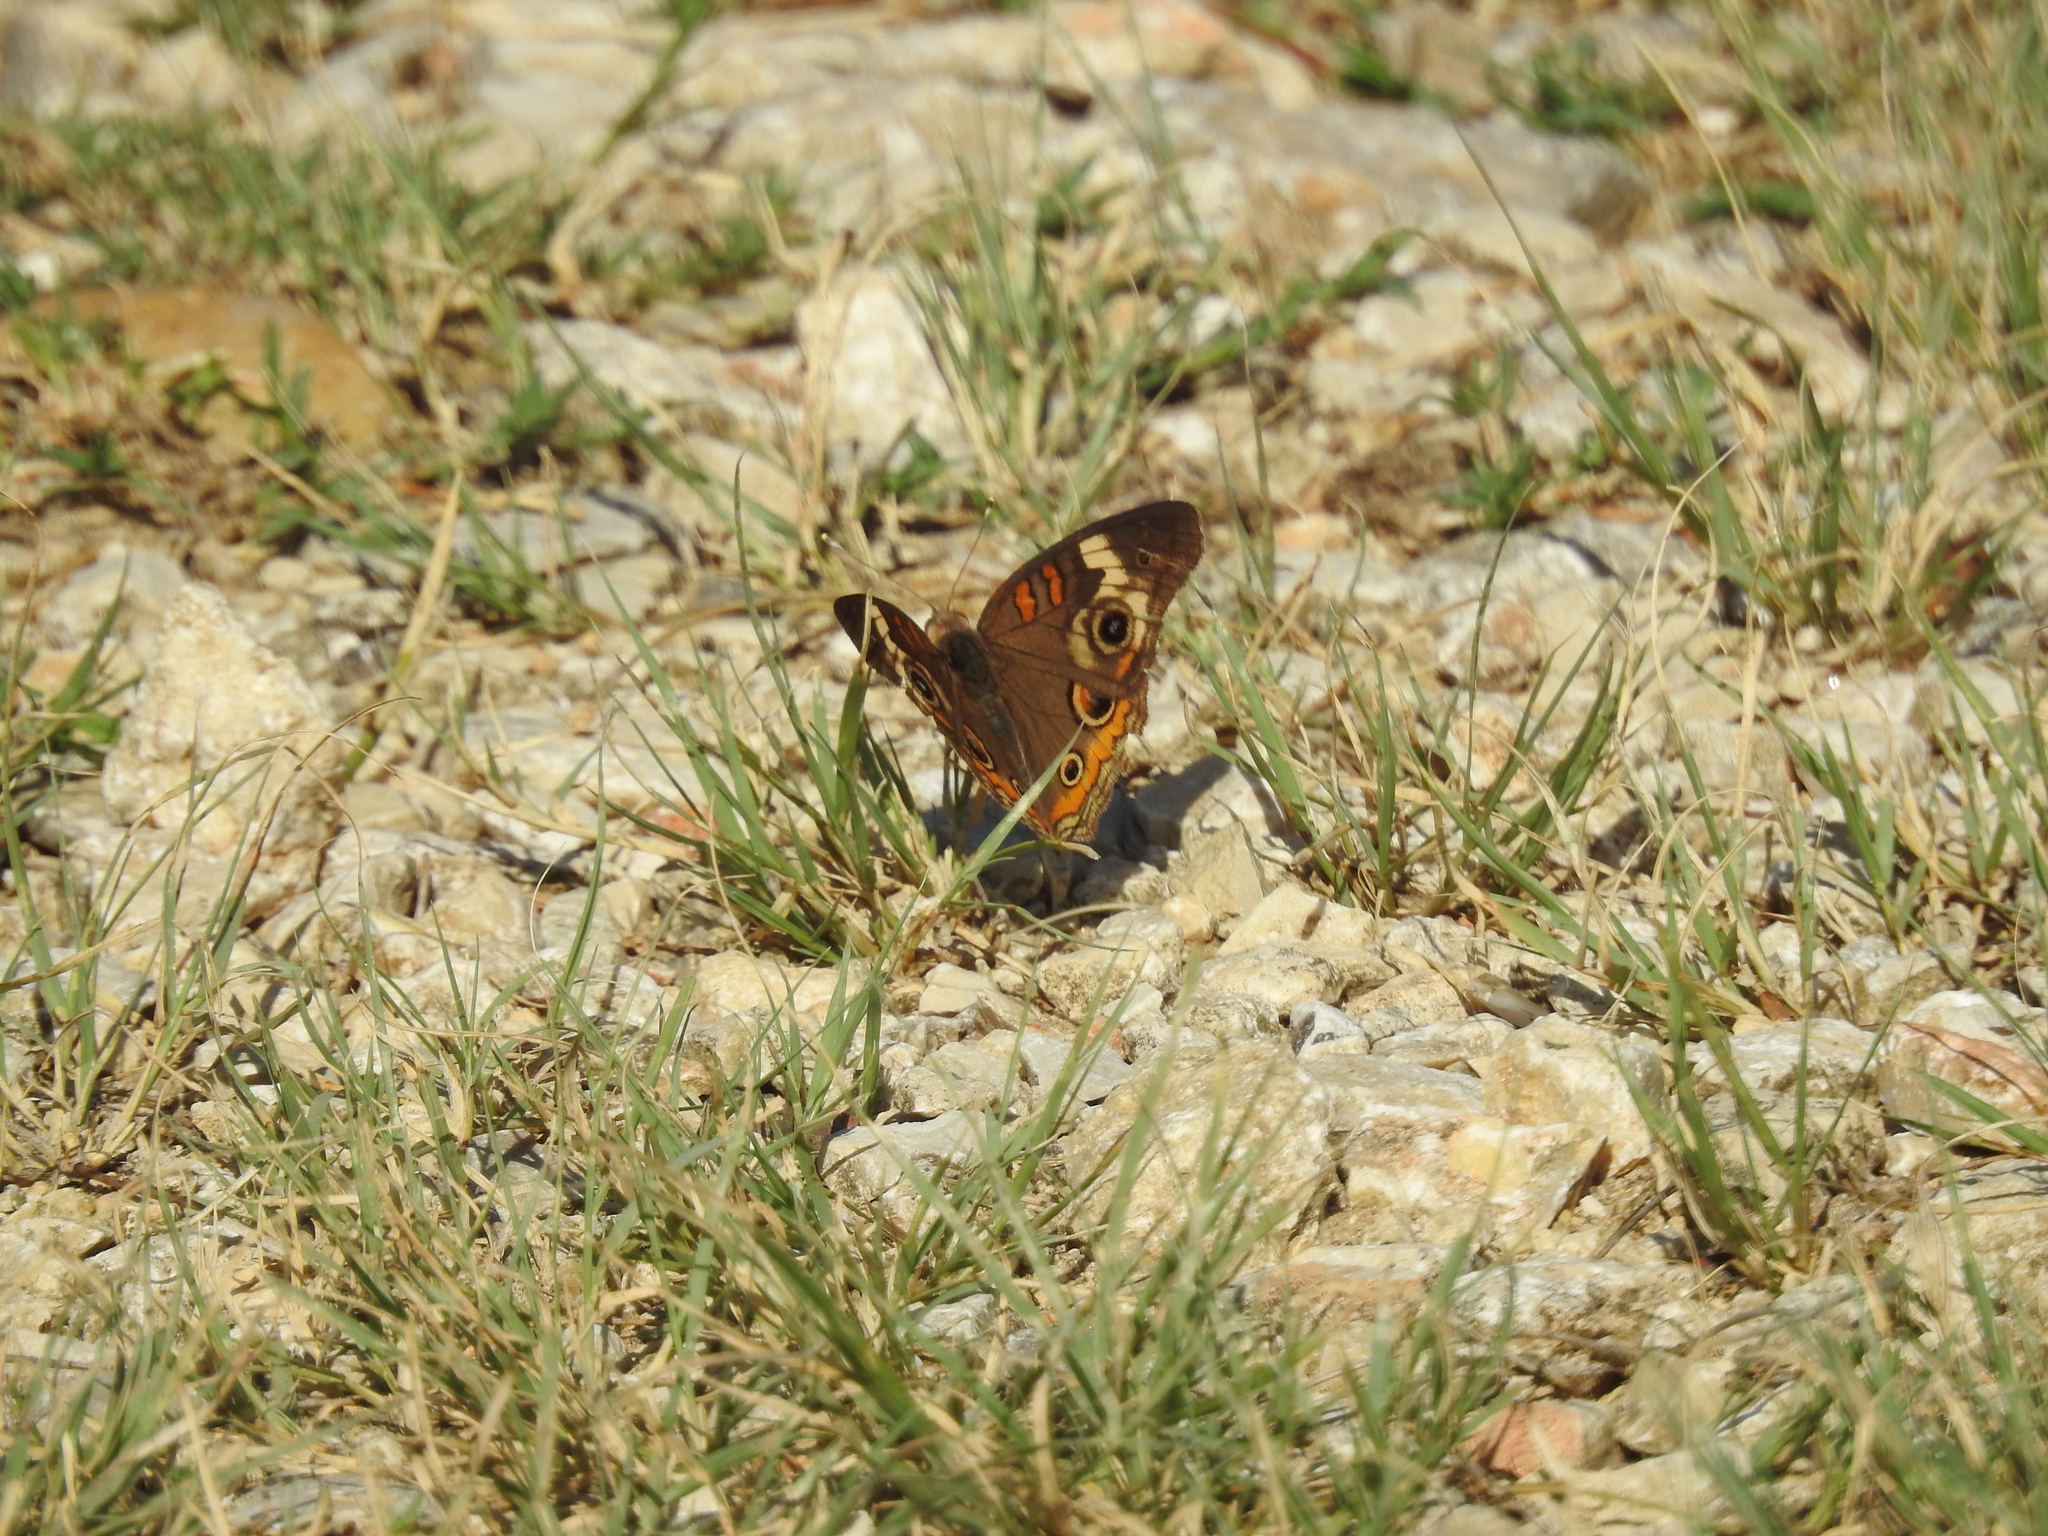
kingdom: Animalia
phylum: Arthropoda
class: Insecta
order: Lepidoptera
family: Nymphalidae
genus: Junonia
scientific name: Junonia coenia
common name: Common buckeye
